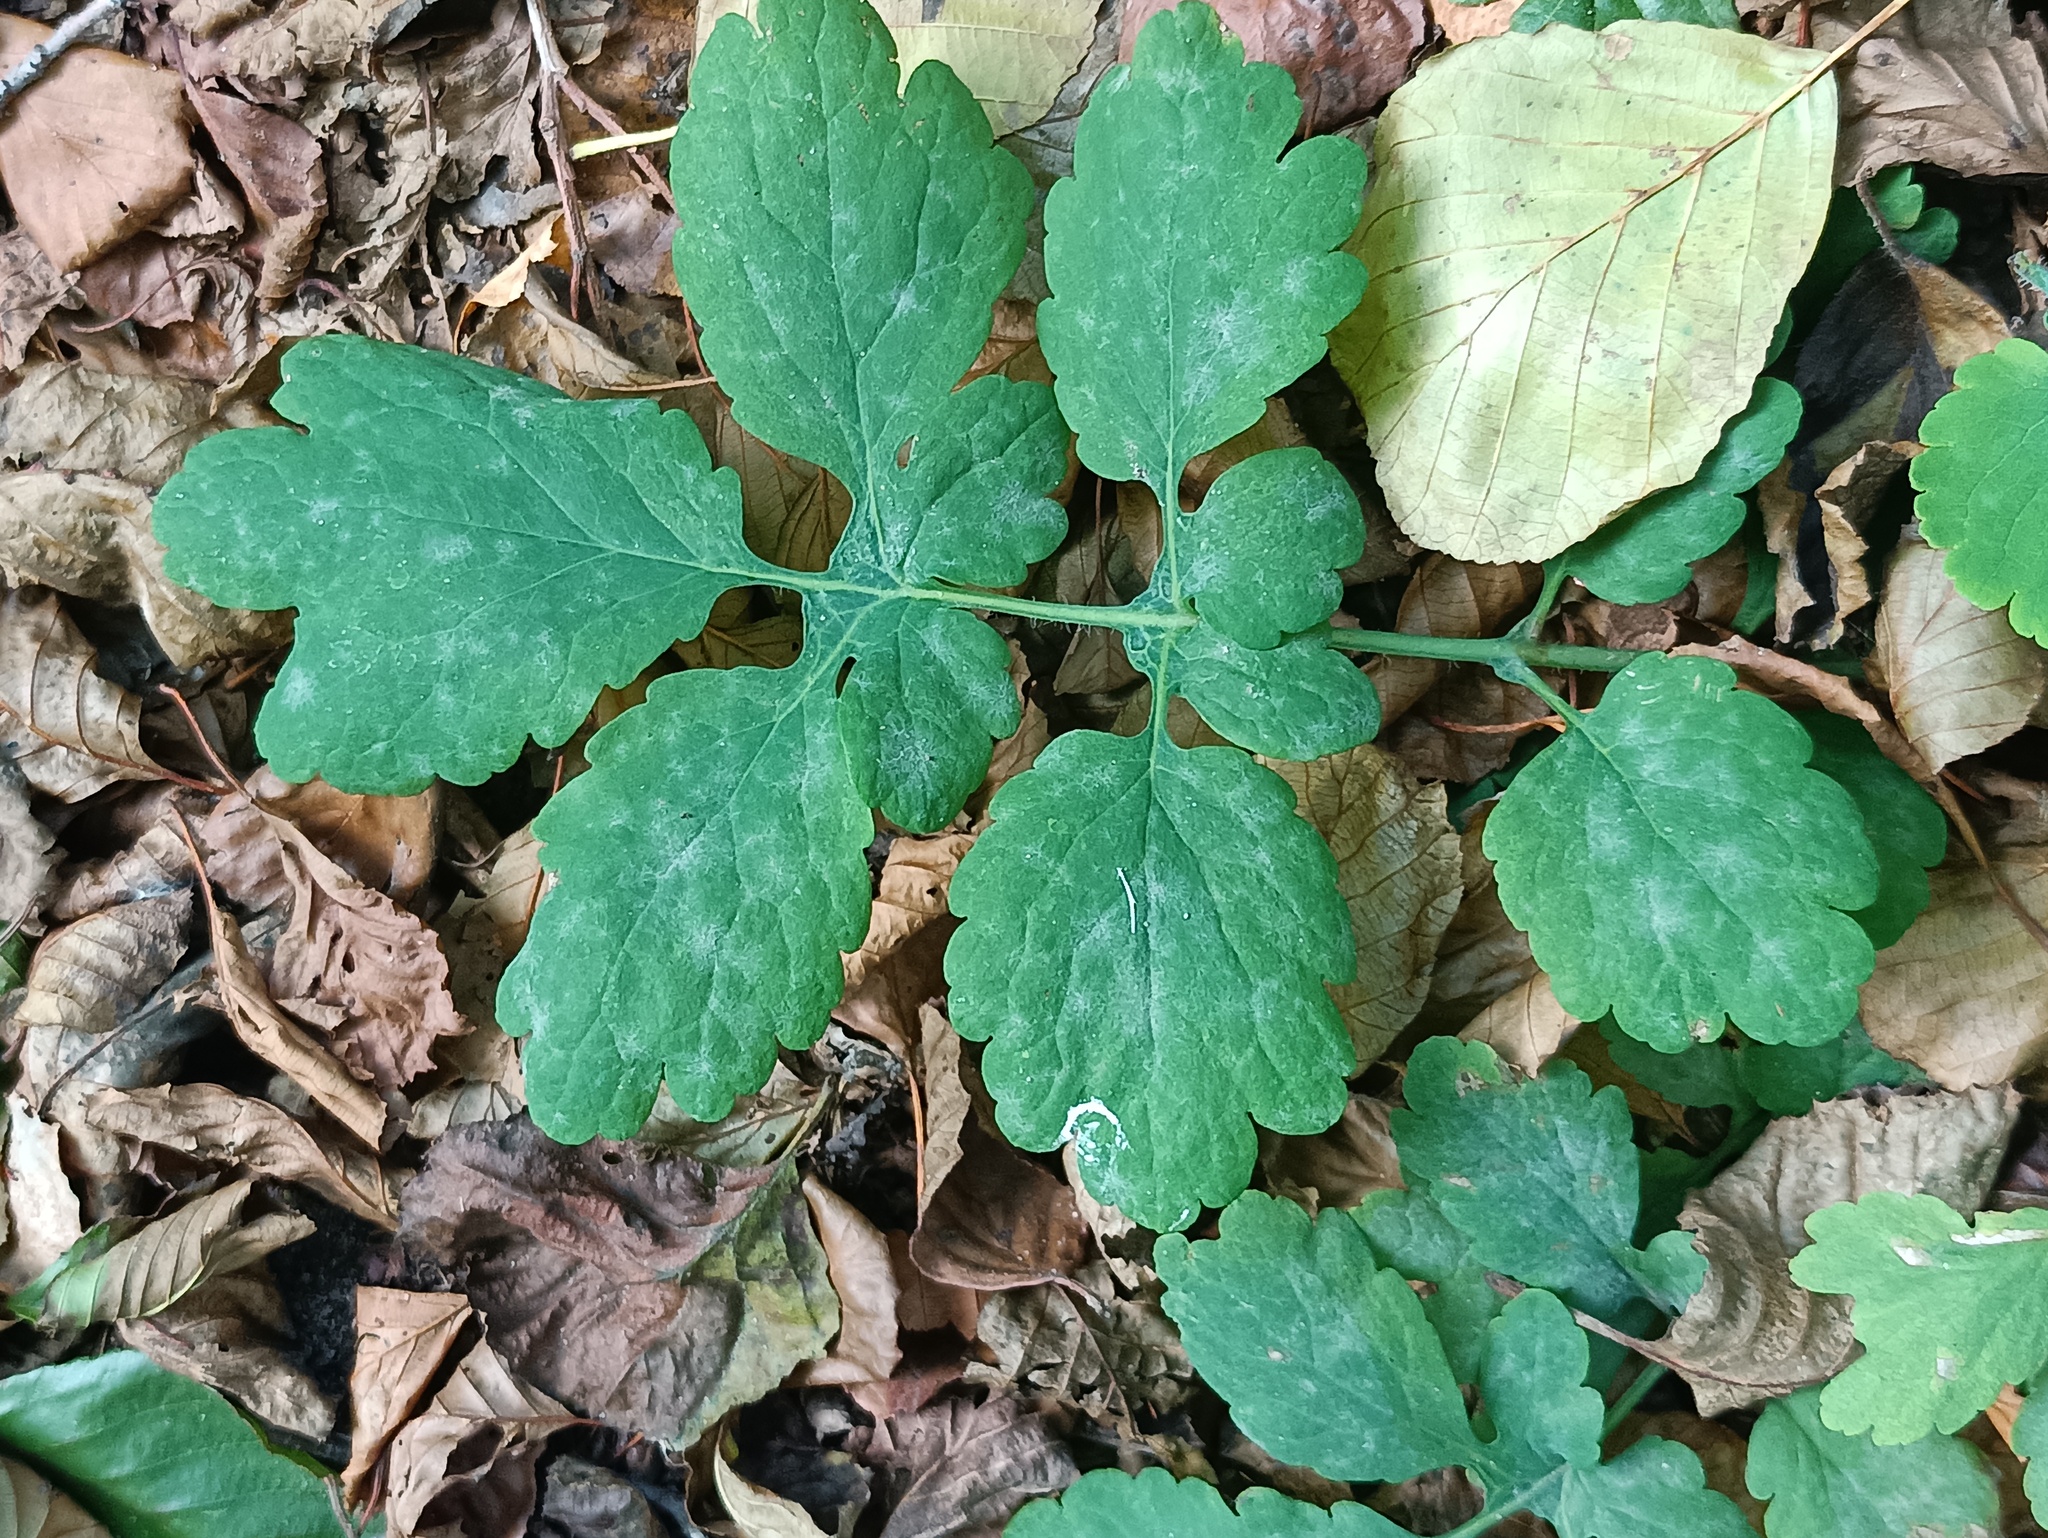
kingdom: Plantae
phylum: Tracheophyta
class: Magnoliopsida
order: Ranunculales
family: Papaveraceae
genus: Chelidonium
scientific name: Chelidonium majus
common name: Greater celandine
